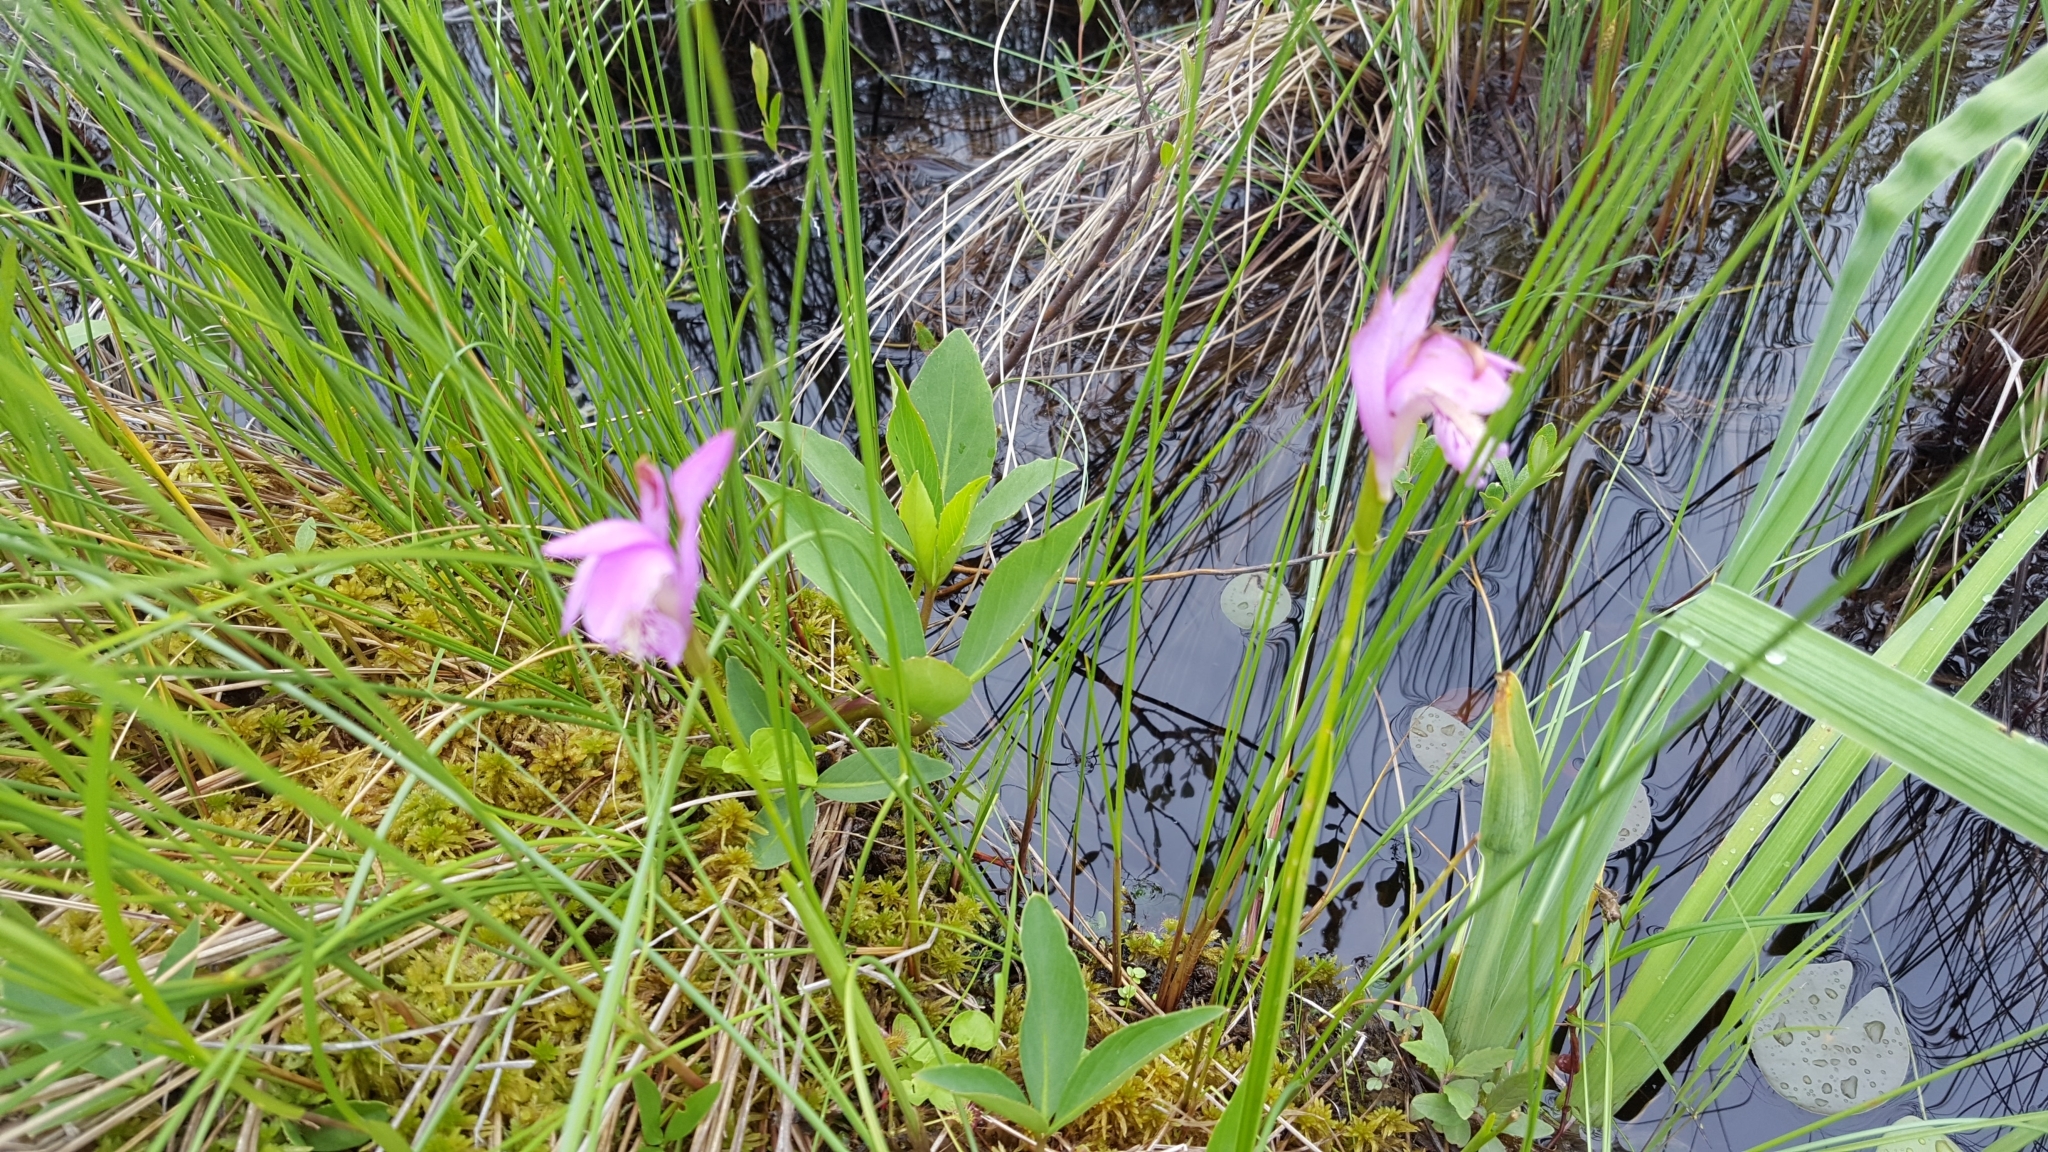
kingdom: Plantae
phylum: Tracheophyta
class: Liliopsida
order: Asparagales
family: Orchidaceae
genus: Arethusa
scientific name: Arethusa bulbosa
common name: Arethusa
